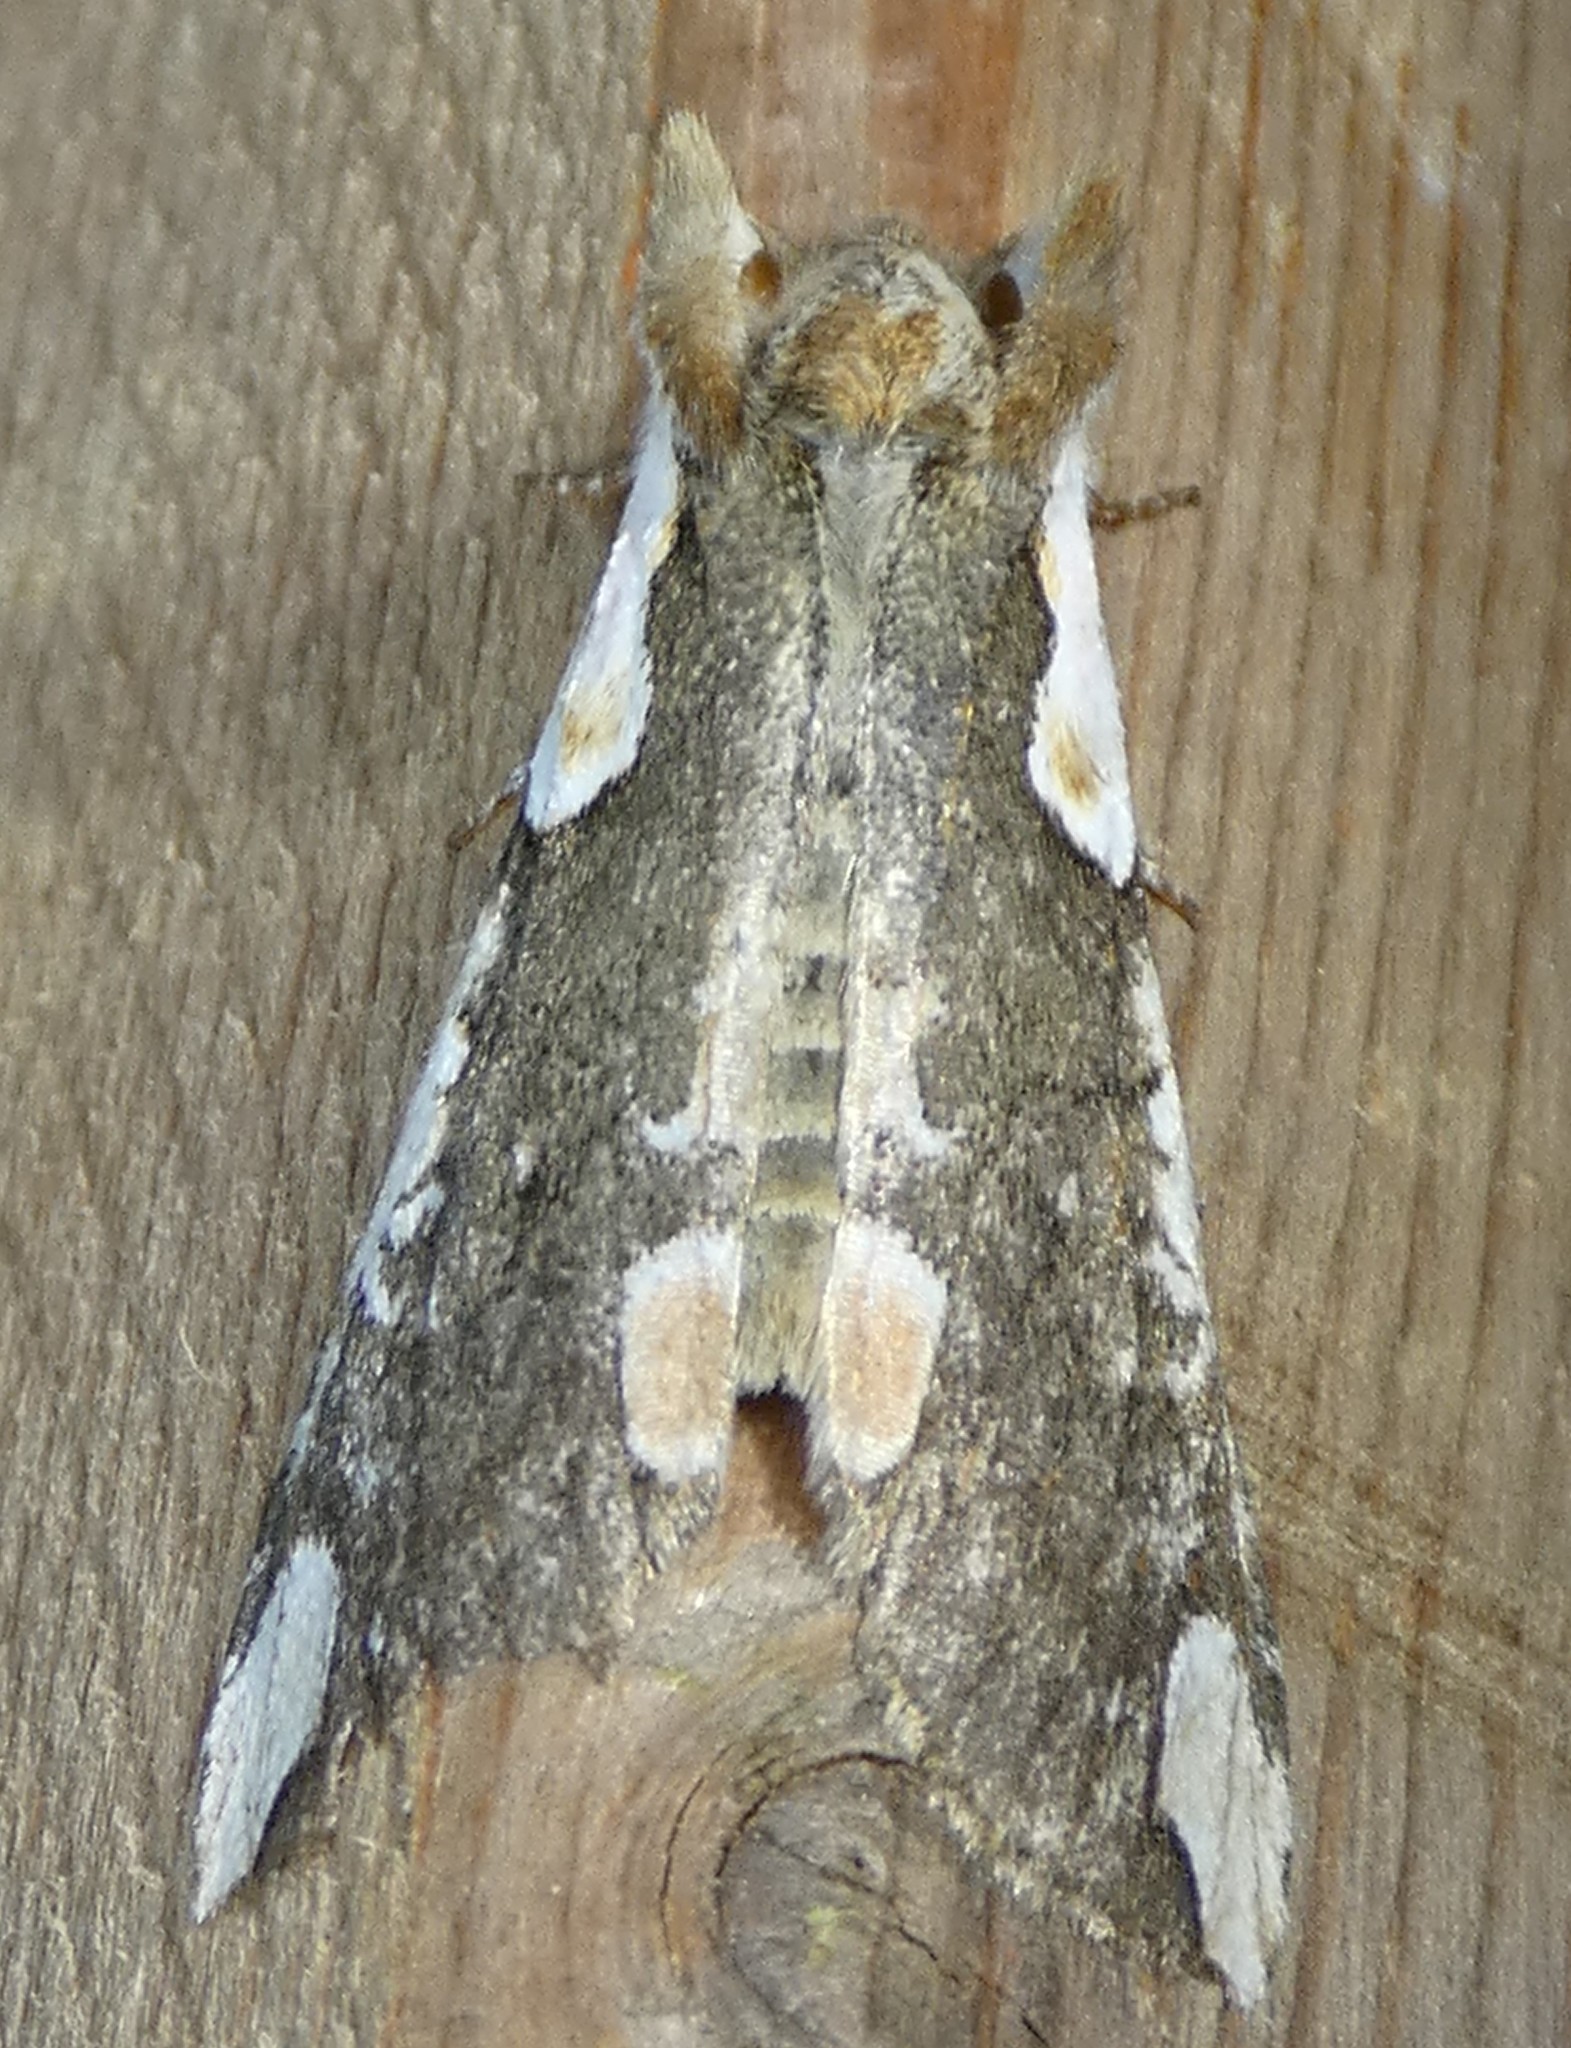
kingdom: Animalia
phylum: Arthropoda
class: Insecta
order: Lepidoptera
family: Drepanidae
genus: Euthyatira
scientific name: Euthyatira pudens
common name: Dogwood thyatirid moth
